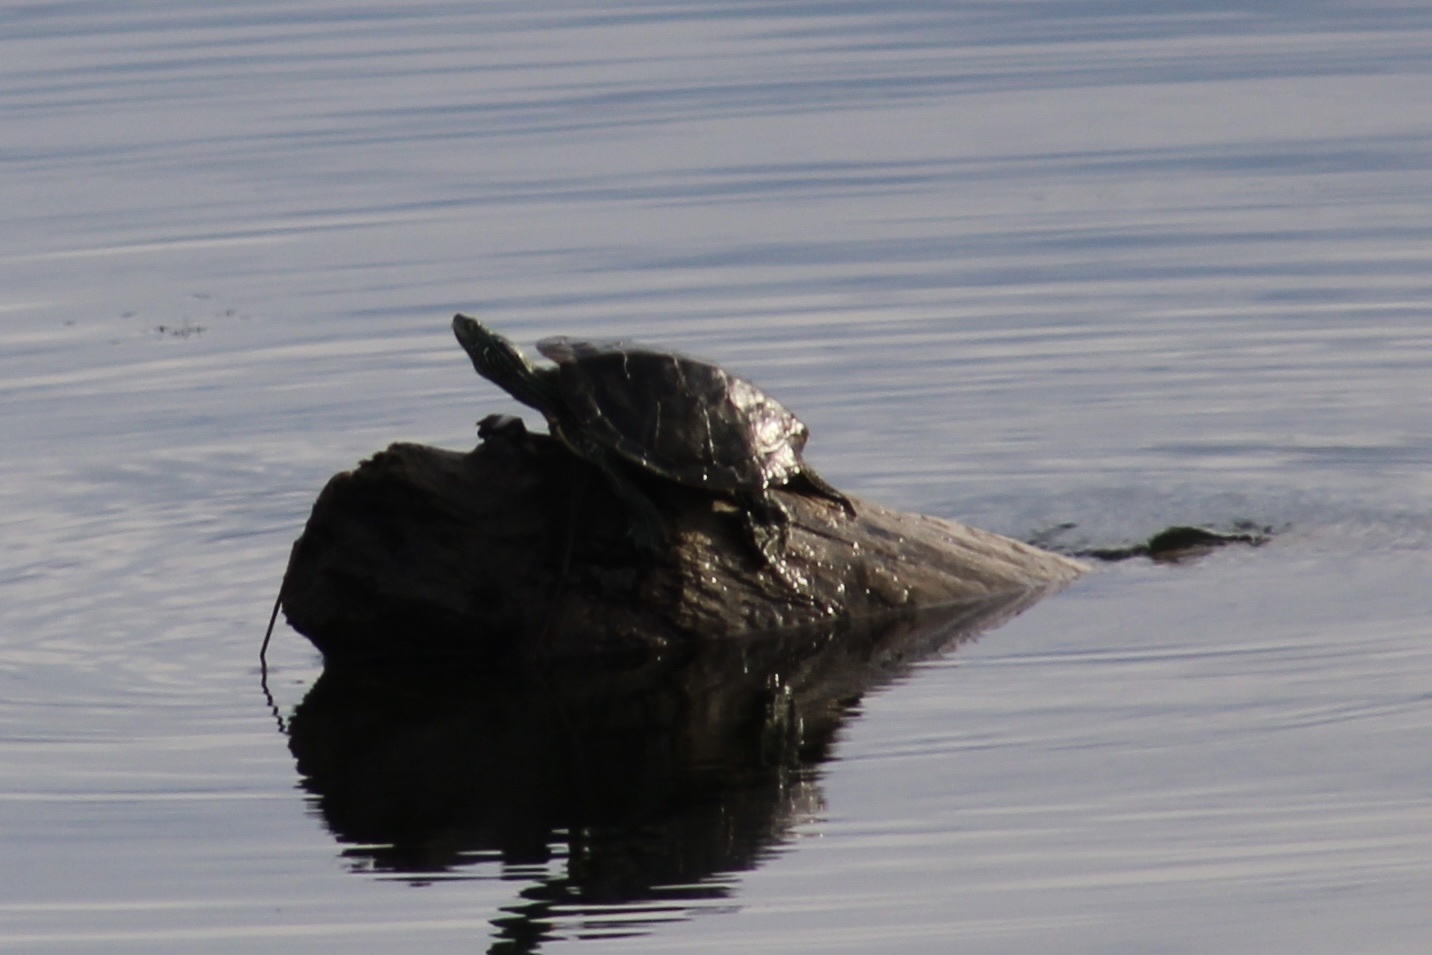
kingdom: Animalia
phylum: Chordata
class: Testudines
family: Emydidae
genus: Graptemys
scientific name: Graptemys geographica
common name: Common map turtle
